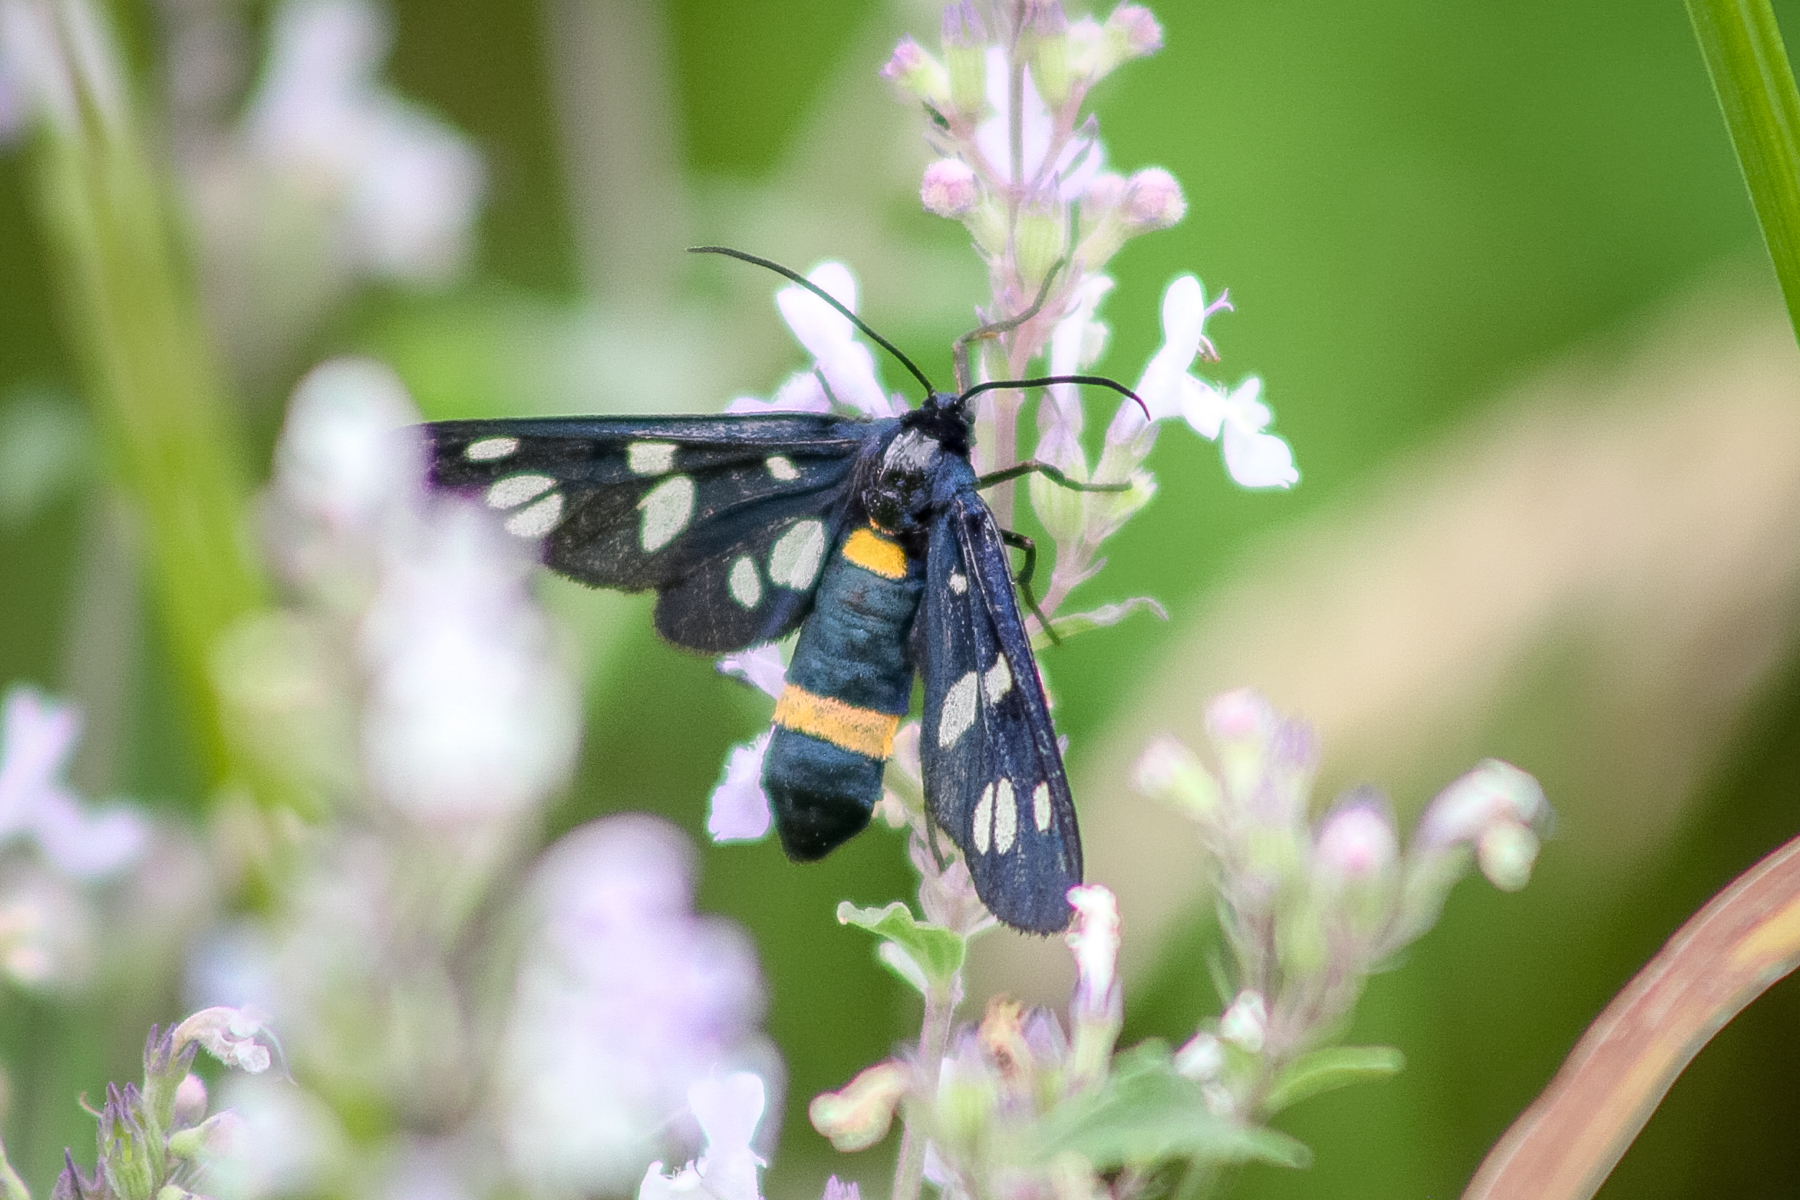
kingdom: Animalia
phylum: Arthropoda
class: Insecta
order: Lepidoptera
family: Erebidae
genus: Amata
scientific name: Amata nigricornis
